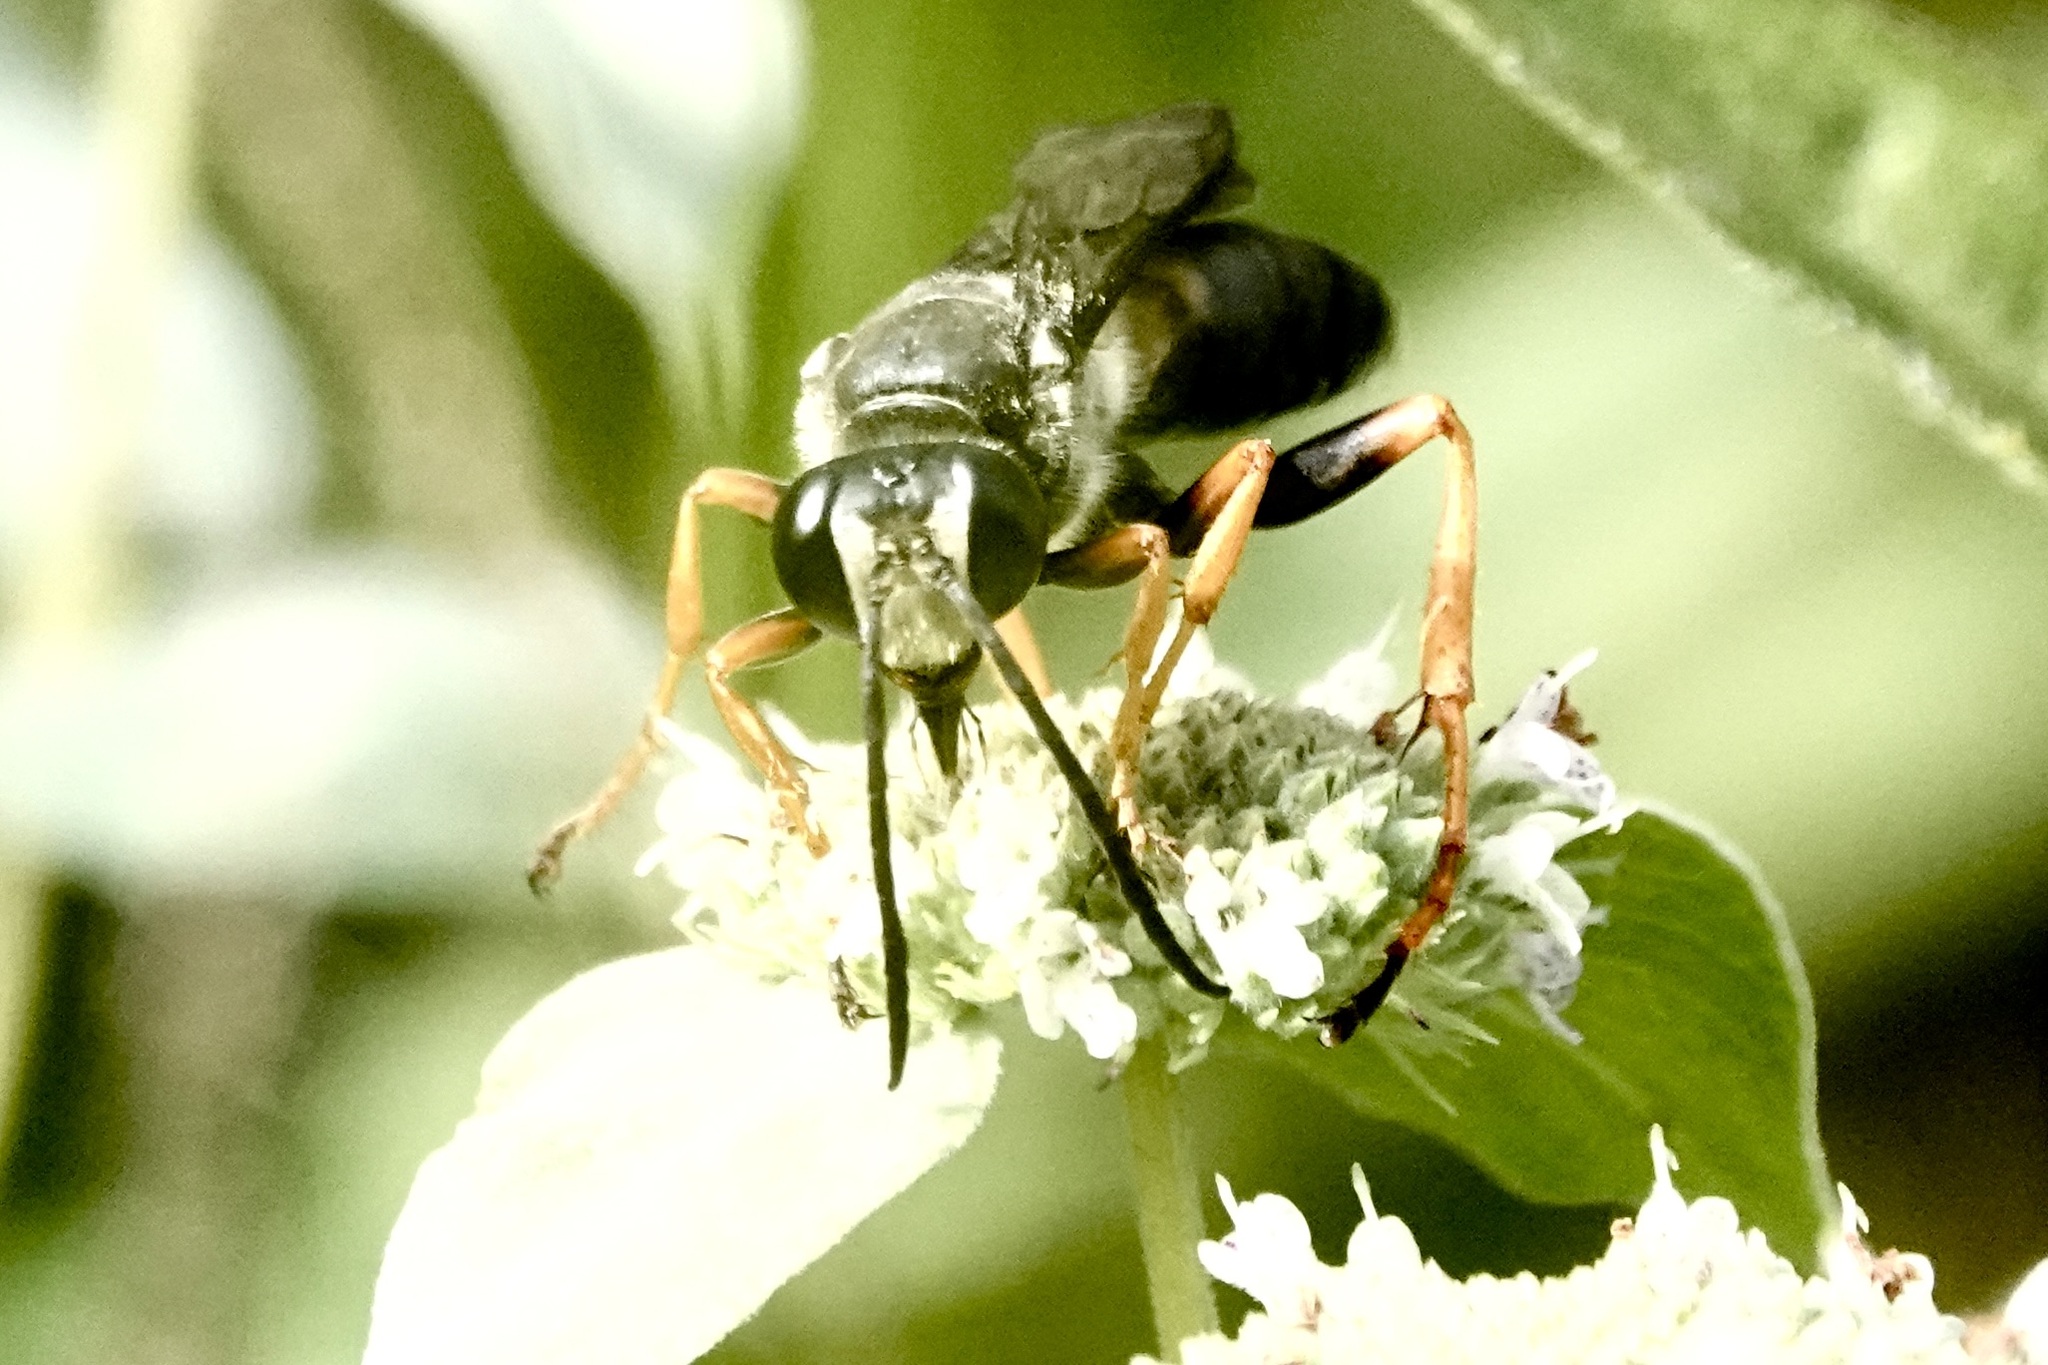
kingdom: Animalia
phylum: Arthropoda
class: Insecta
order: Hymenoptera
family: Sphecidae
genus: Sphex
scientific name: Sphex nudus
